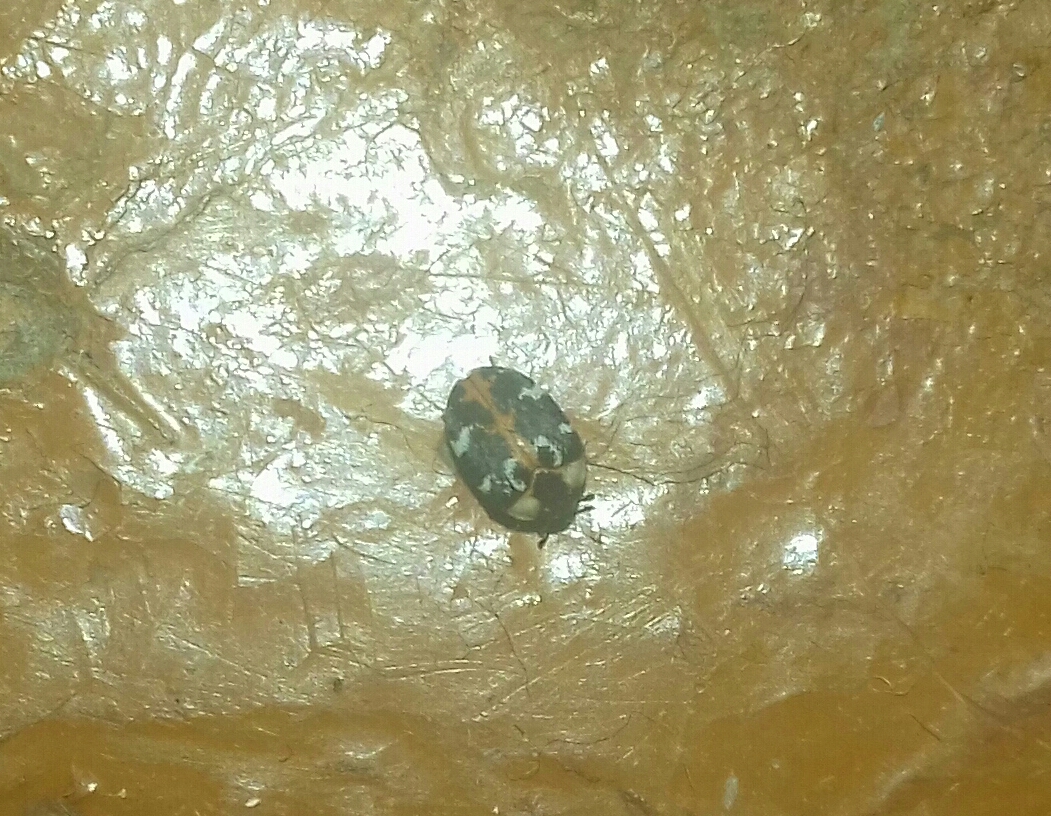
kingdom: Animalia
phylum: Arthropoda
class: Insecta
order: Coleoptera
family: Dermestidae
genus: Anthrenus
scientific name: Anthrenus scrophulariae
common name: Buffalo carpet beetle
